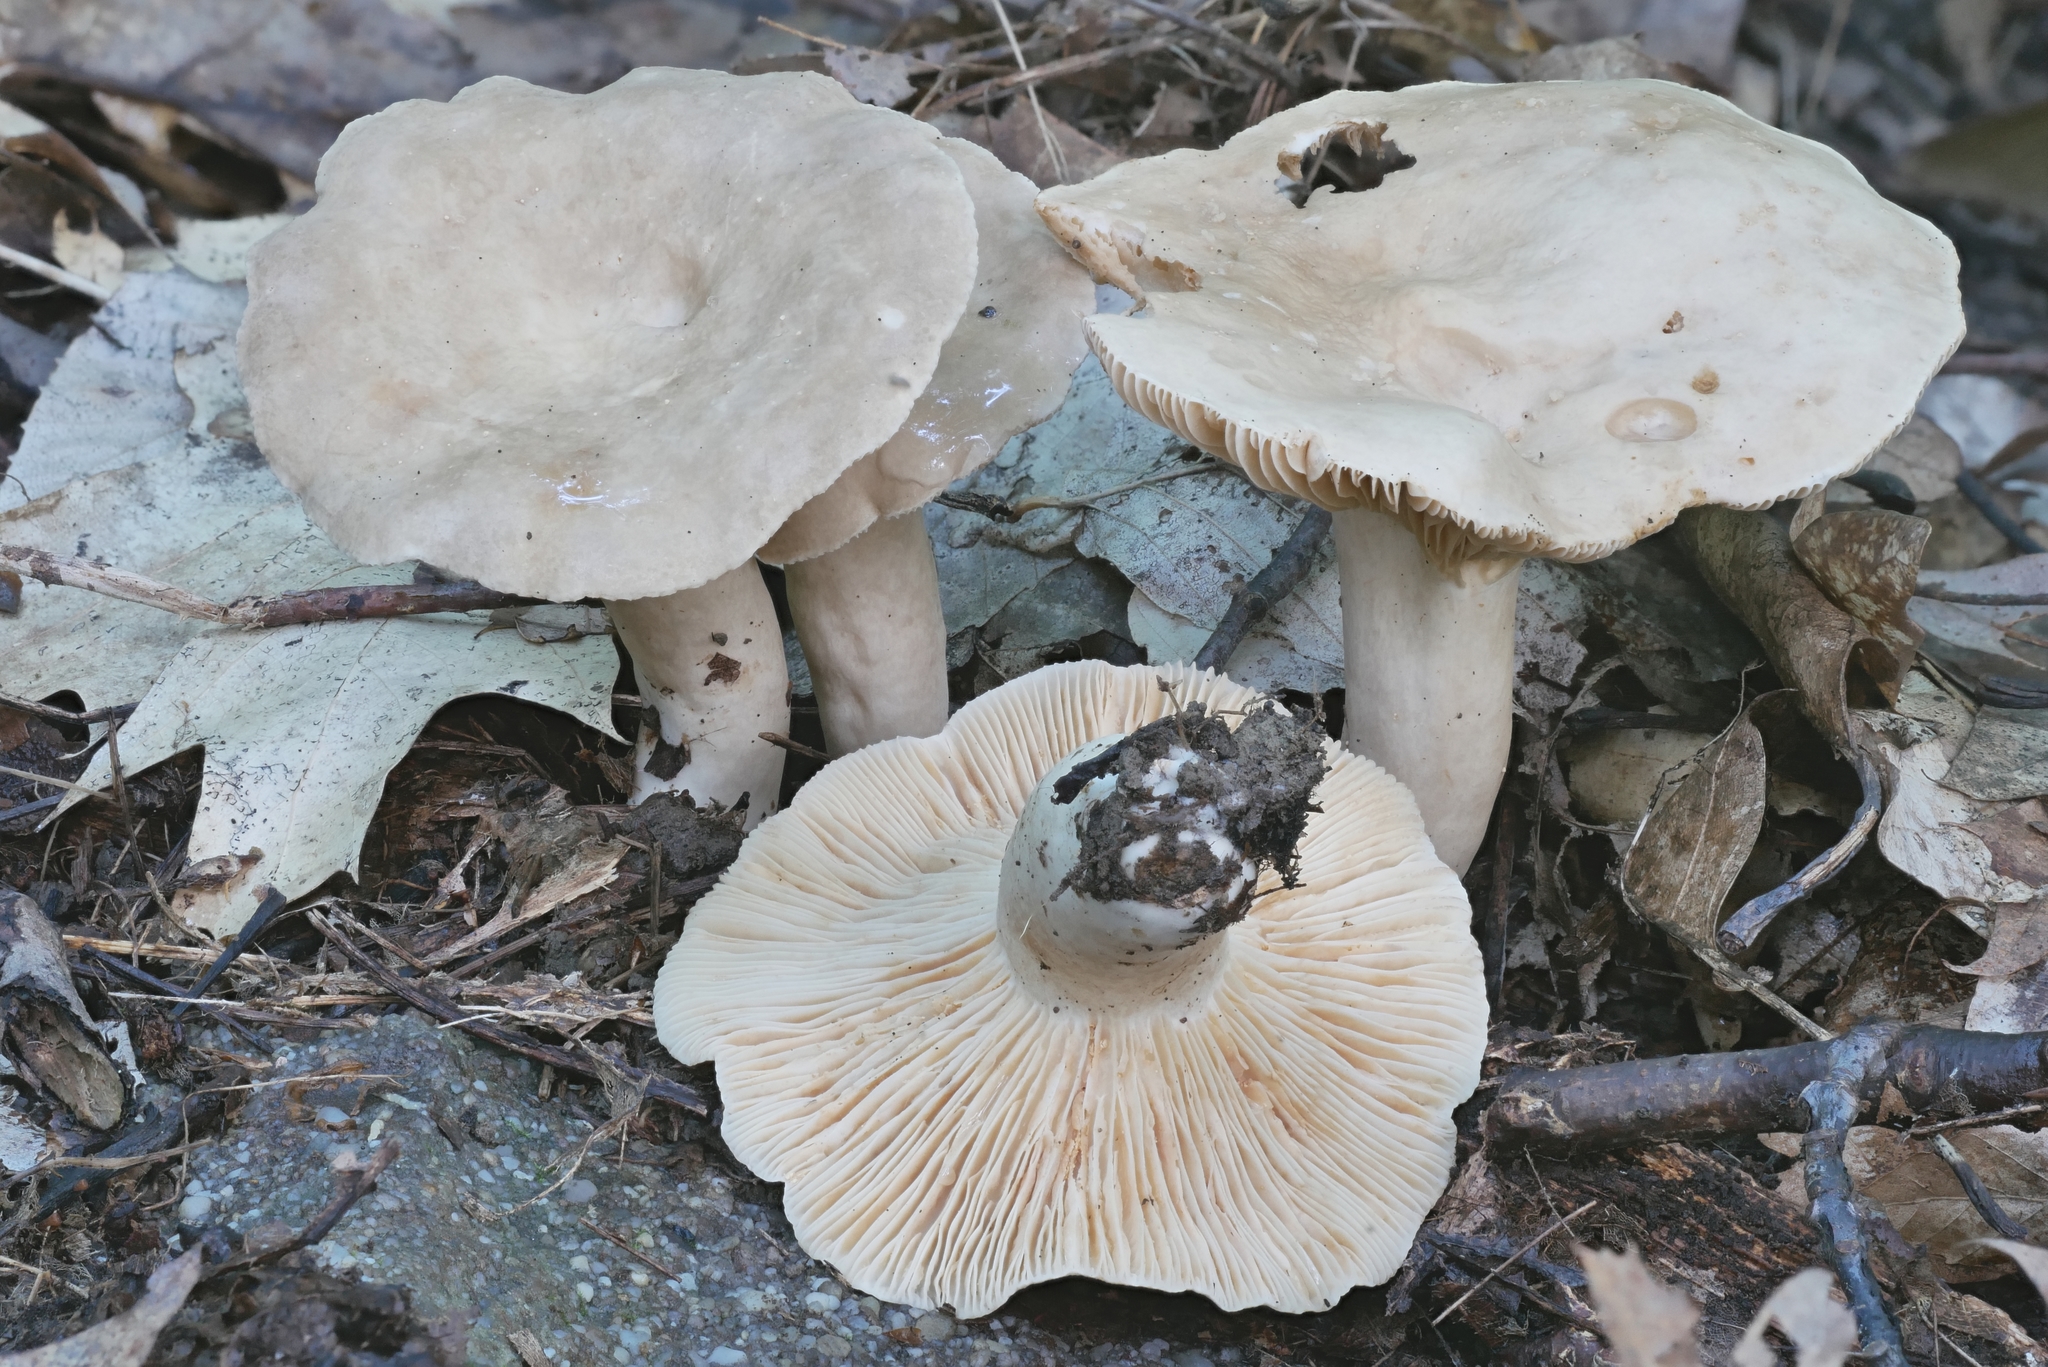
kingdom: Fungi
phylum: Basidiomycota
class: Agaricomycetes
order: Russulales
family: Russulaceae
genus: Lactarius
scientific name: Lactarius fumosus
